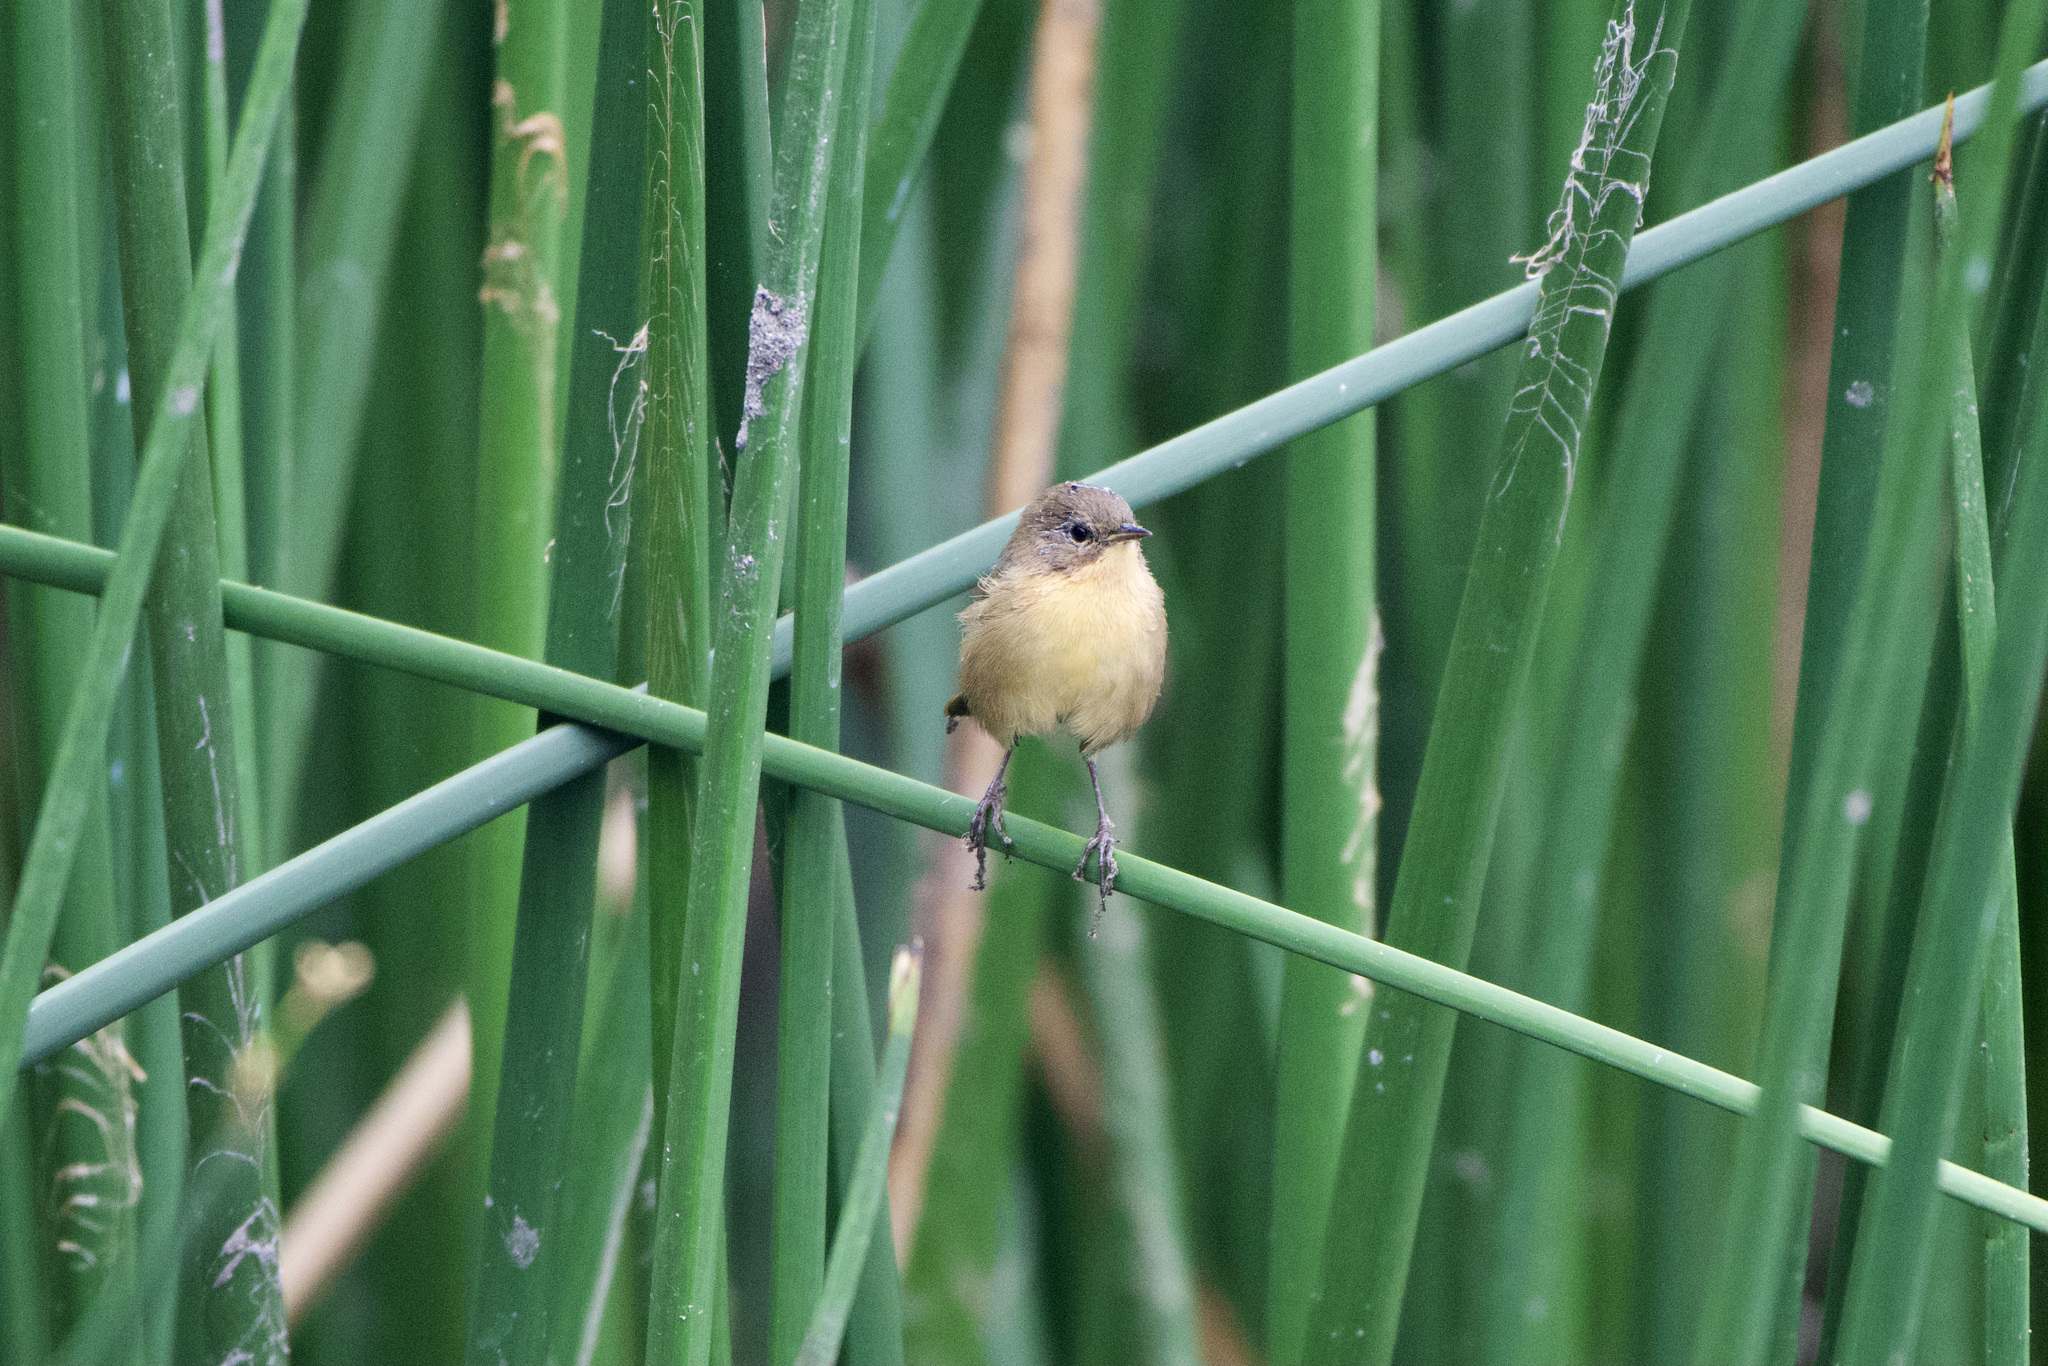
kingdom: Animalia
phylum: Chordata
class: Aves
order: Passeriformes
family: Parulidae
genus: Geothlypis
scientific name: Geothlypis trichas
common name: Common yellowthroat
